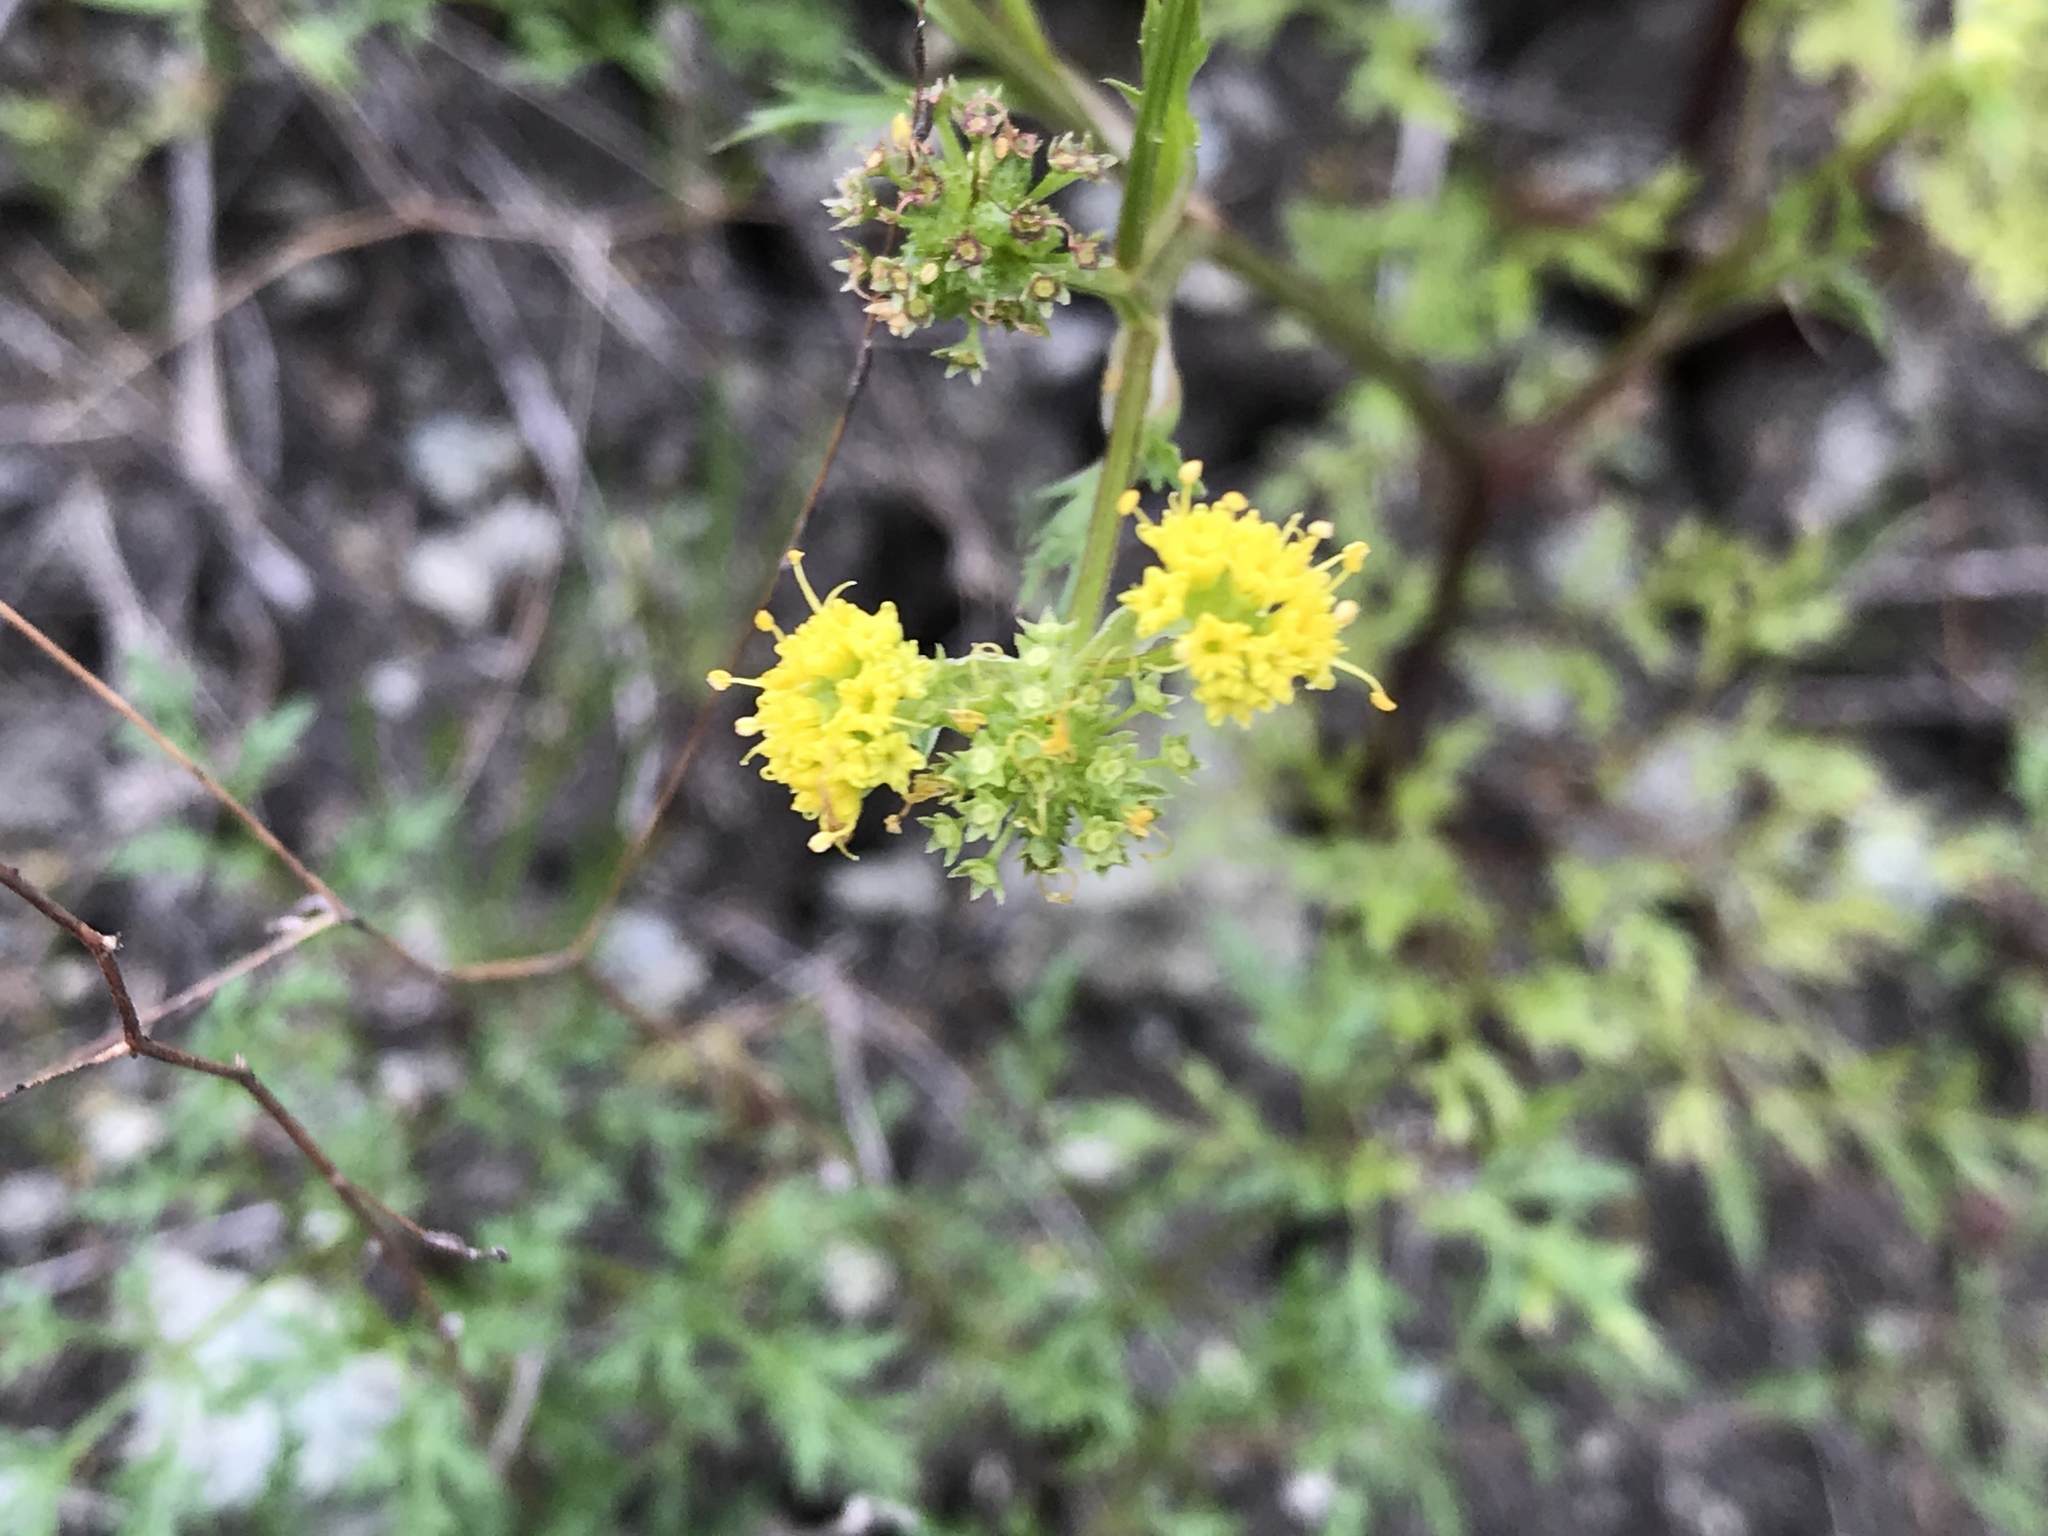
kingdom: Plantae
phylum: Tracheophyta
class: Magnoliopsida
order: Apiales
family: Apiaceae
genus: Sanicula
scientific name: Sanicula tuberosa
